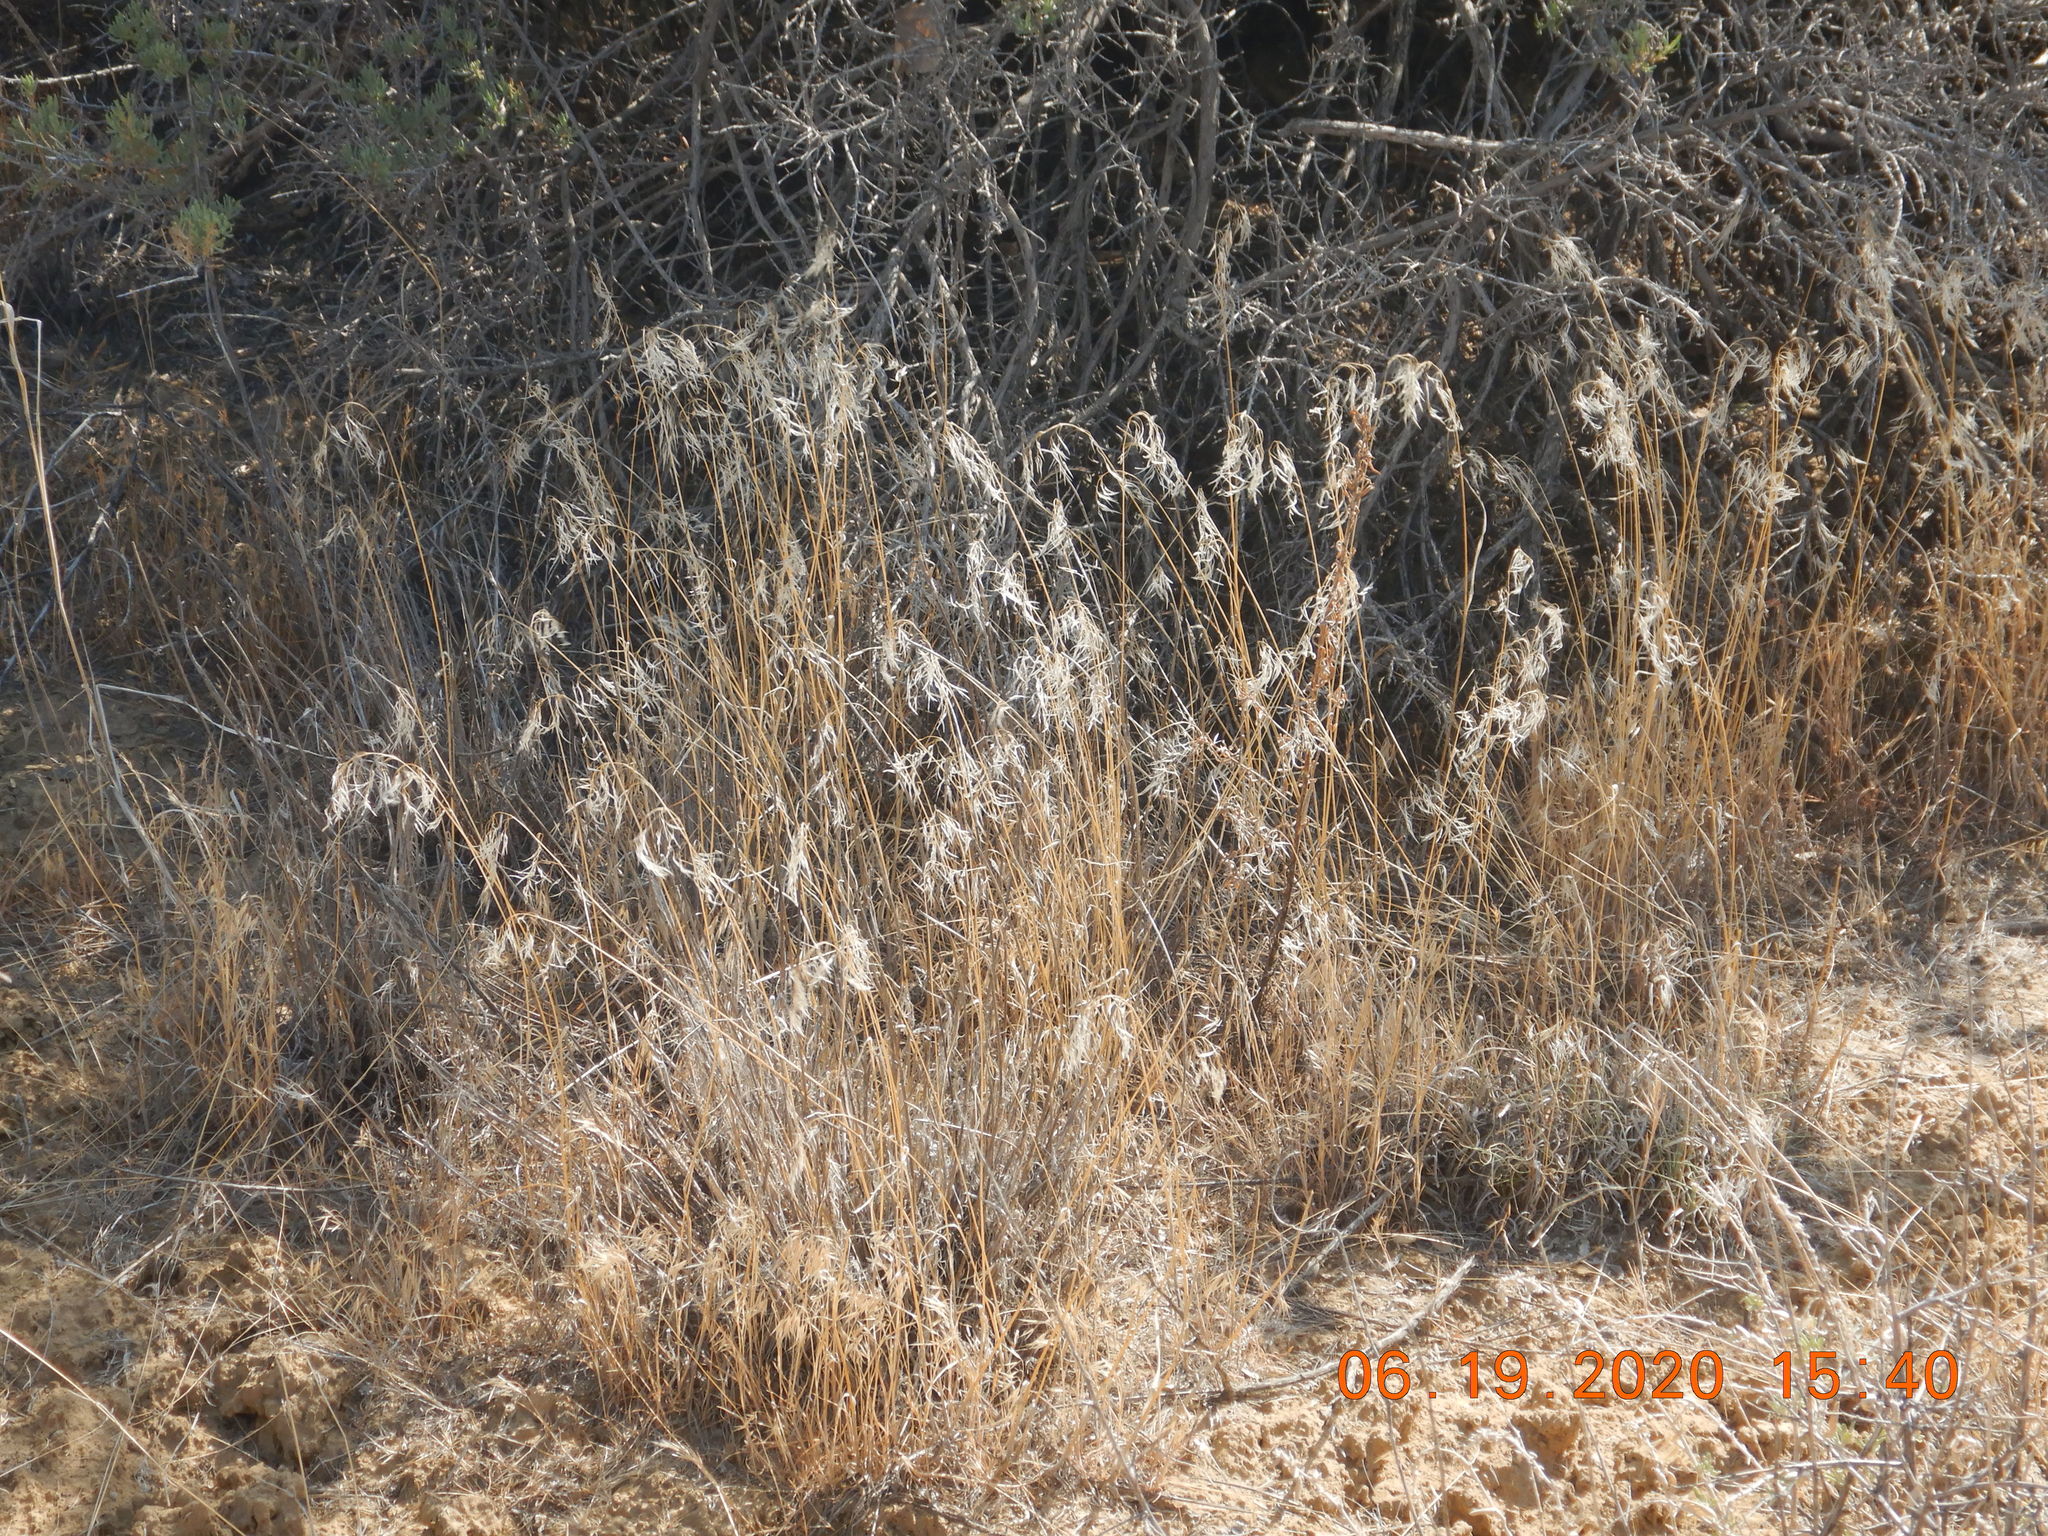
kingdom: Plantae
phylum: Tracheophyta
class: Liliopsida
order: Poales
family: Poaceae
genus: Bromus
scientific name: Bromus tectorum
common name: Cheatgrass
